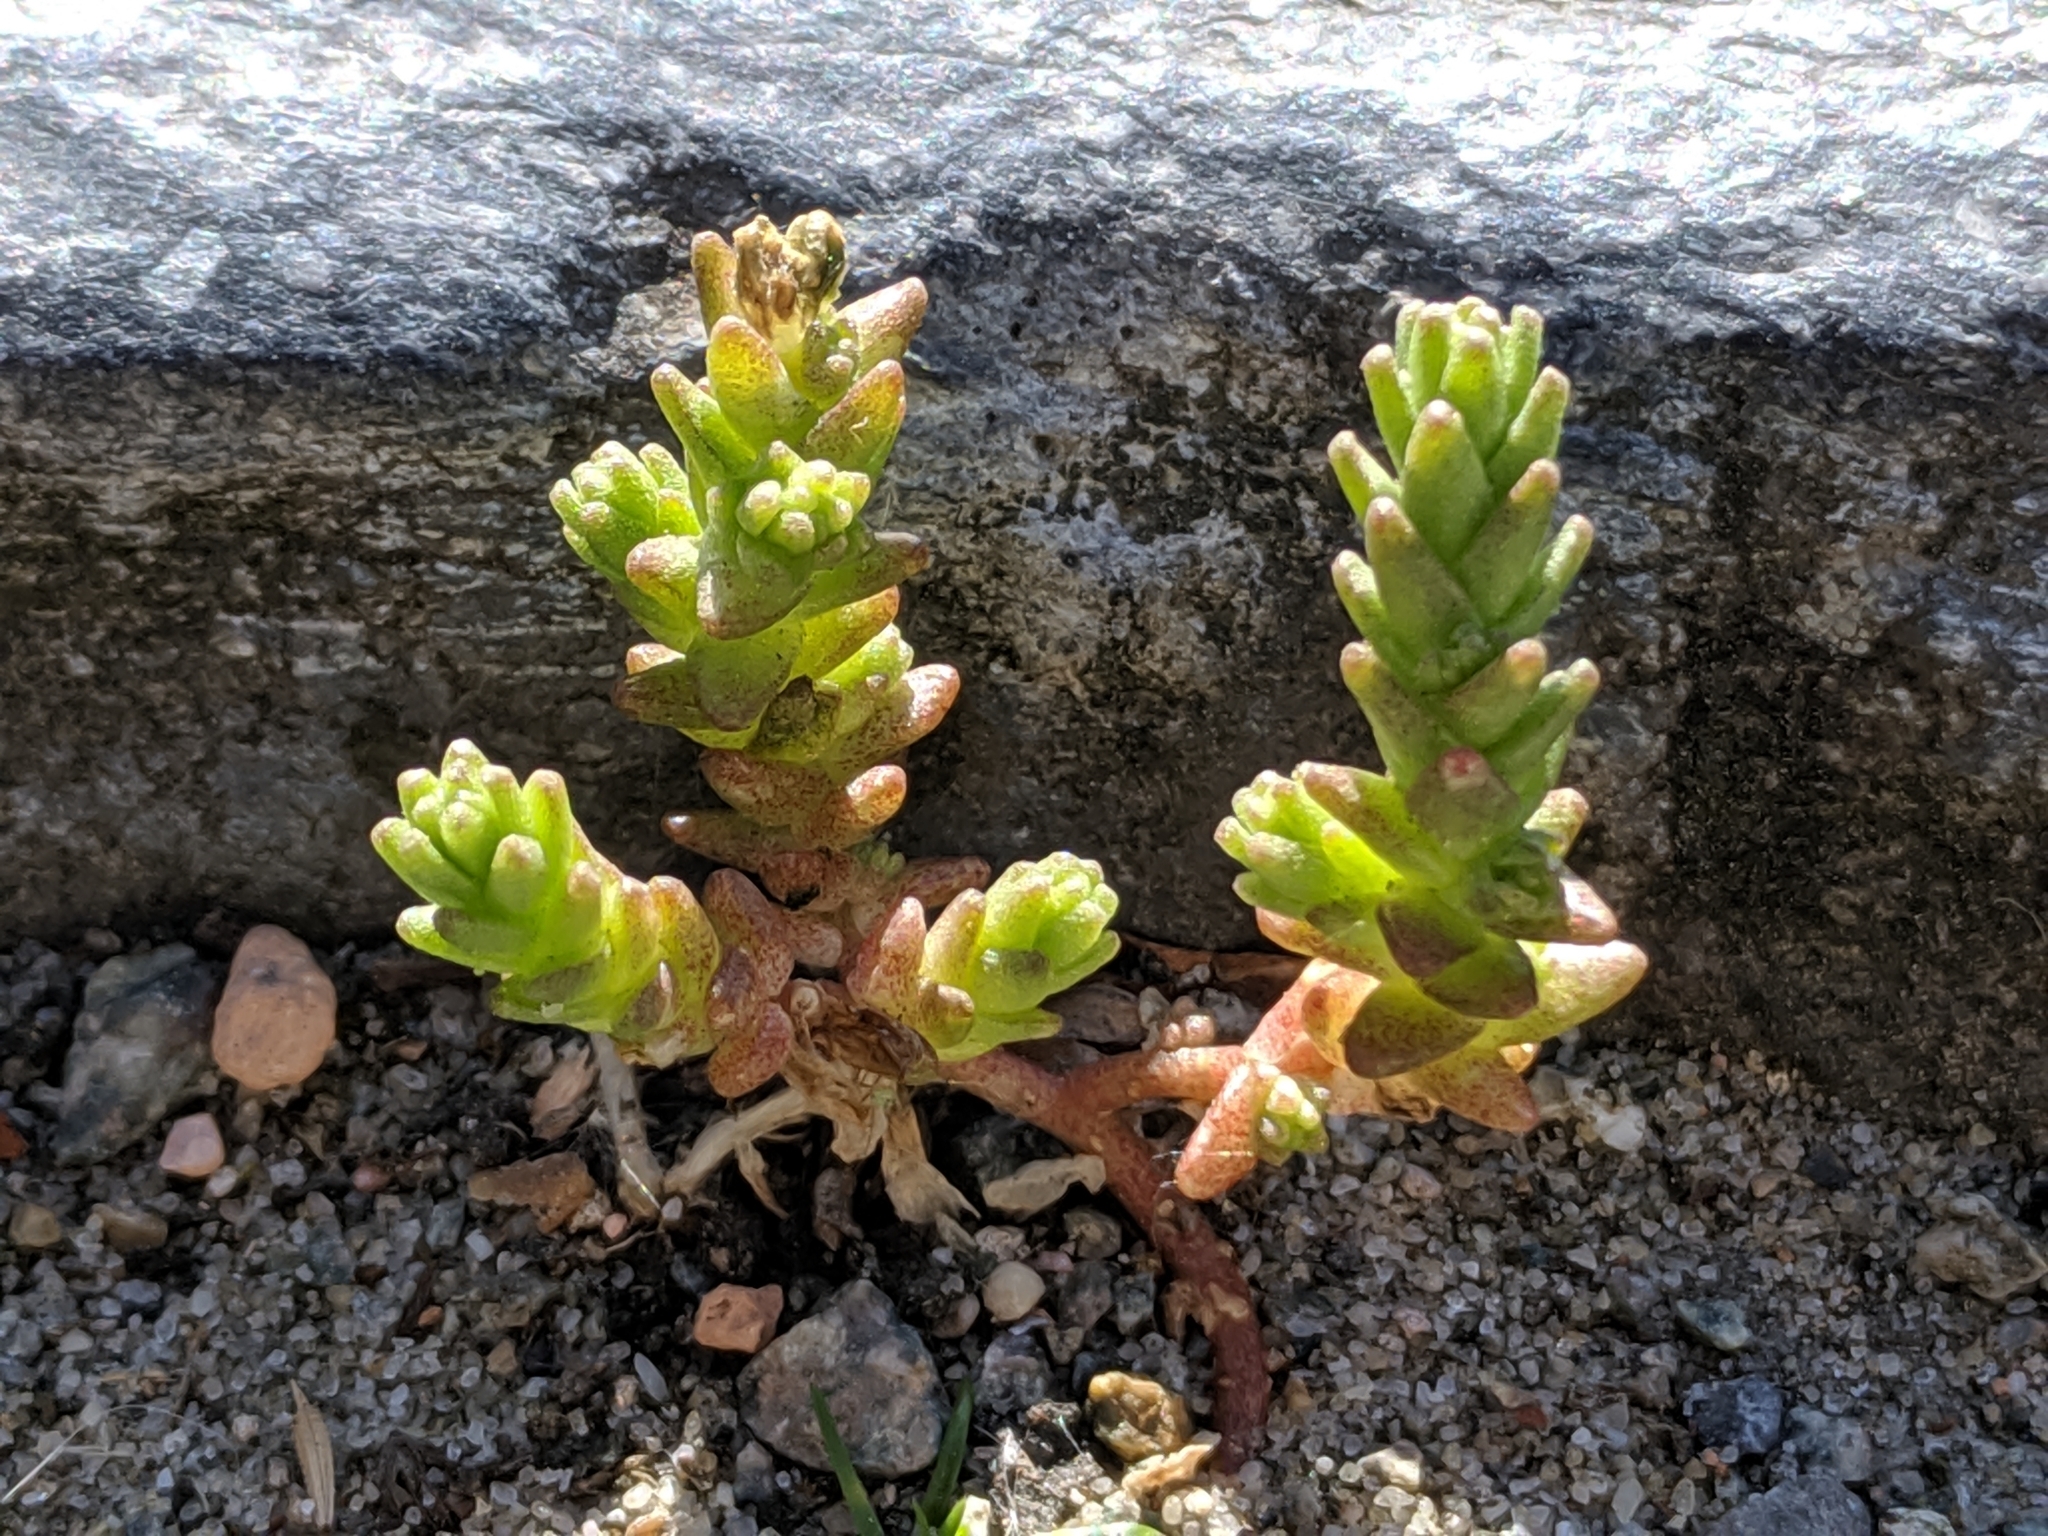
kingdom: Plantae
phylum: Tracheophyta
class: Magnoliopsida
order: Saxifragales
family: Crassulaceae
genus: Sedum
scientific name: Sedum acre
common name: Biting stonecrop
